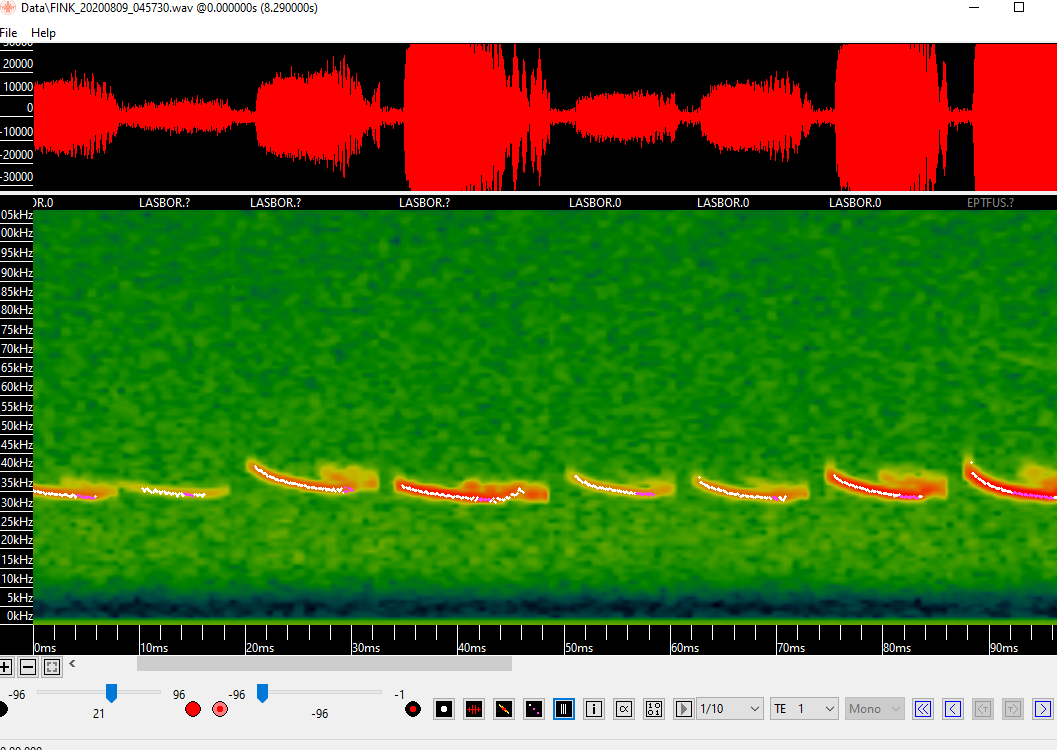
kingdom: Animalia
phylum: Chordata
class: Mammalia
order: Chiroptera
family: Vespertilionidae
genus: Lasiurus
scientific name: Lasiurus borealis
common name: Eastern red bat
